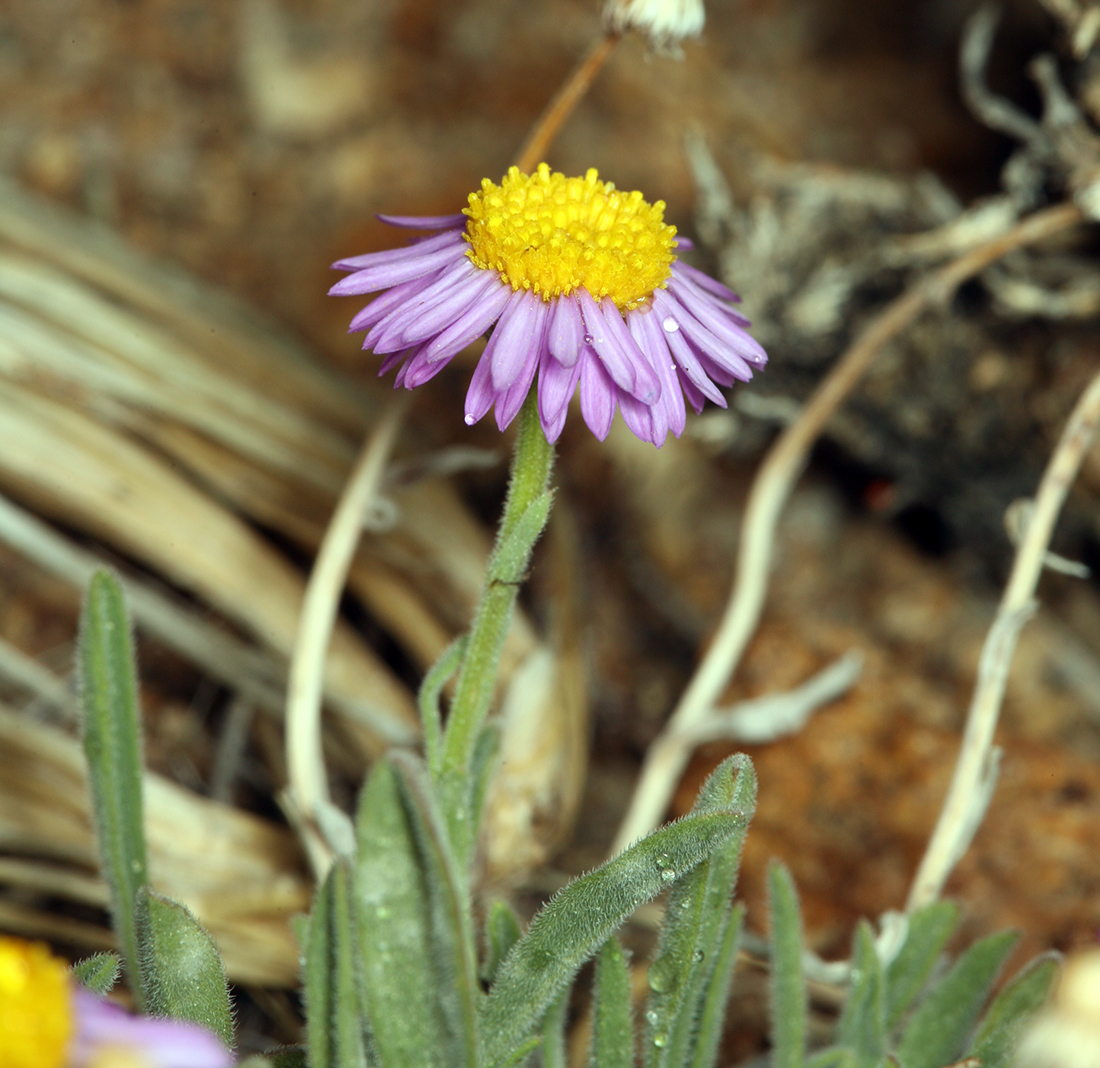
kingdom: Plantae
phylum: Tracheophyta
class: Magnoliopsida
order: Asterales
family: Asteraceae
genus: Erigeron
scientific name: Erigeron clokeyi
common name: Clokey's fleabane
